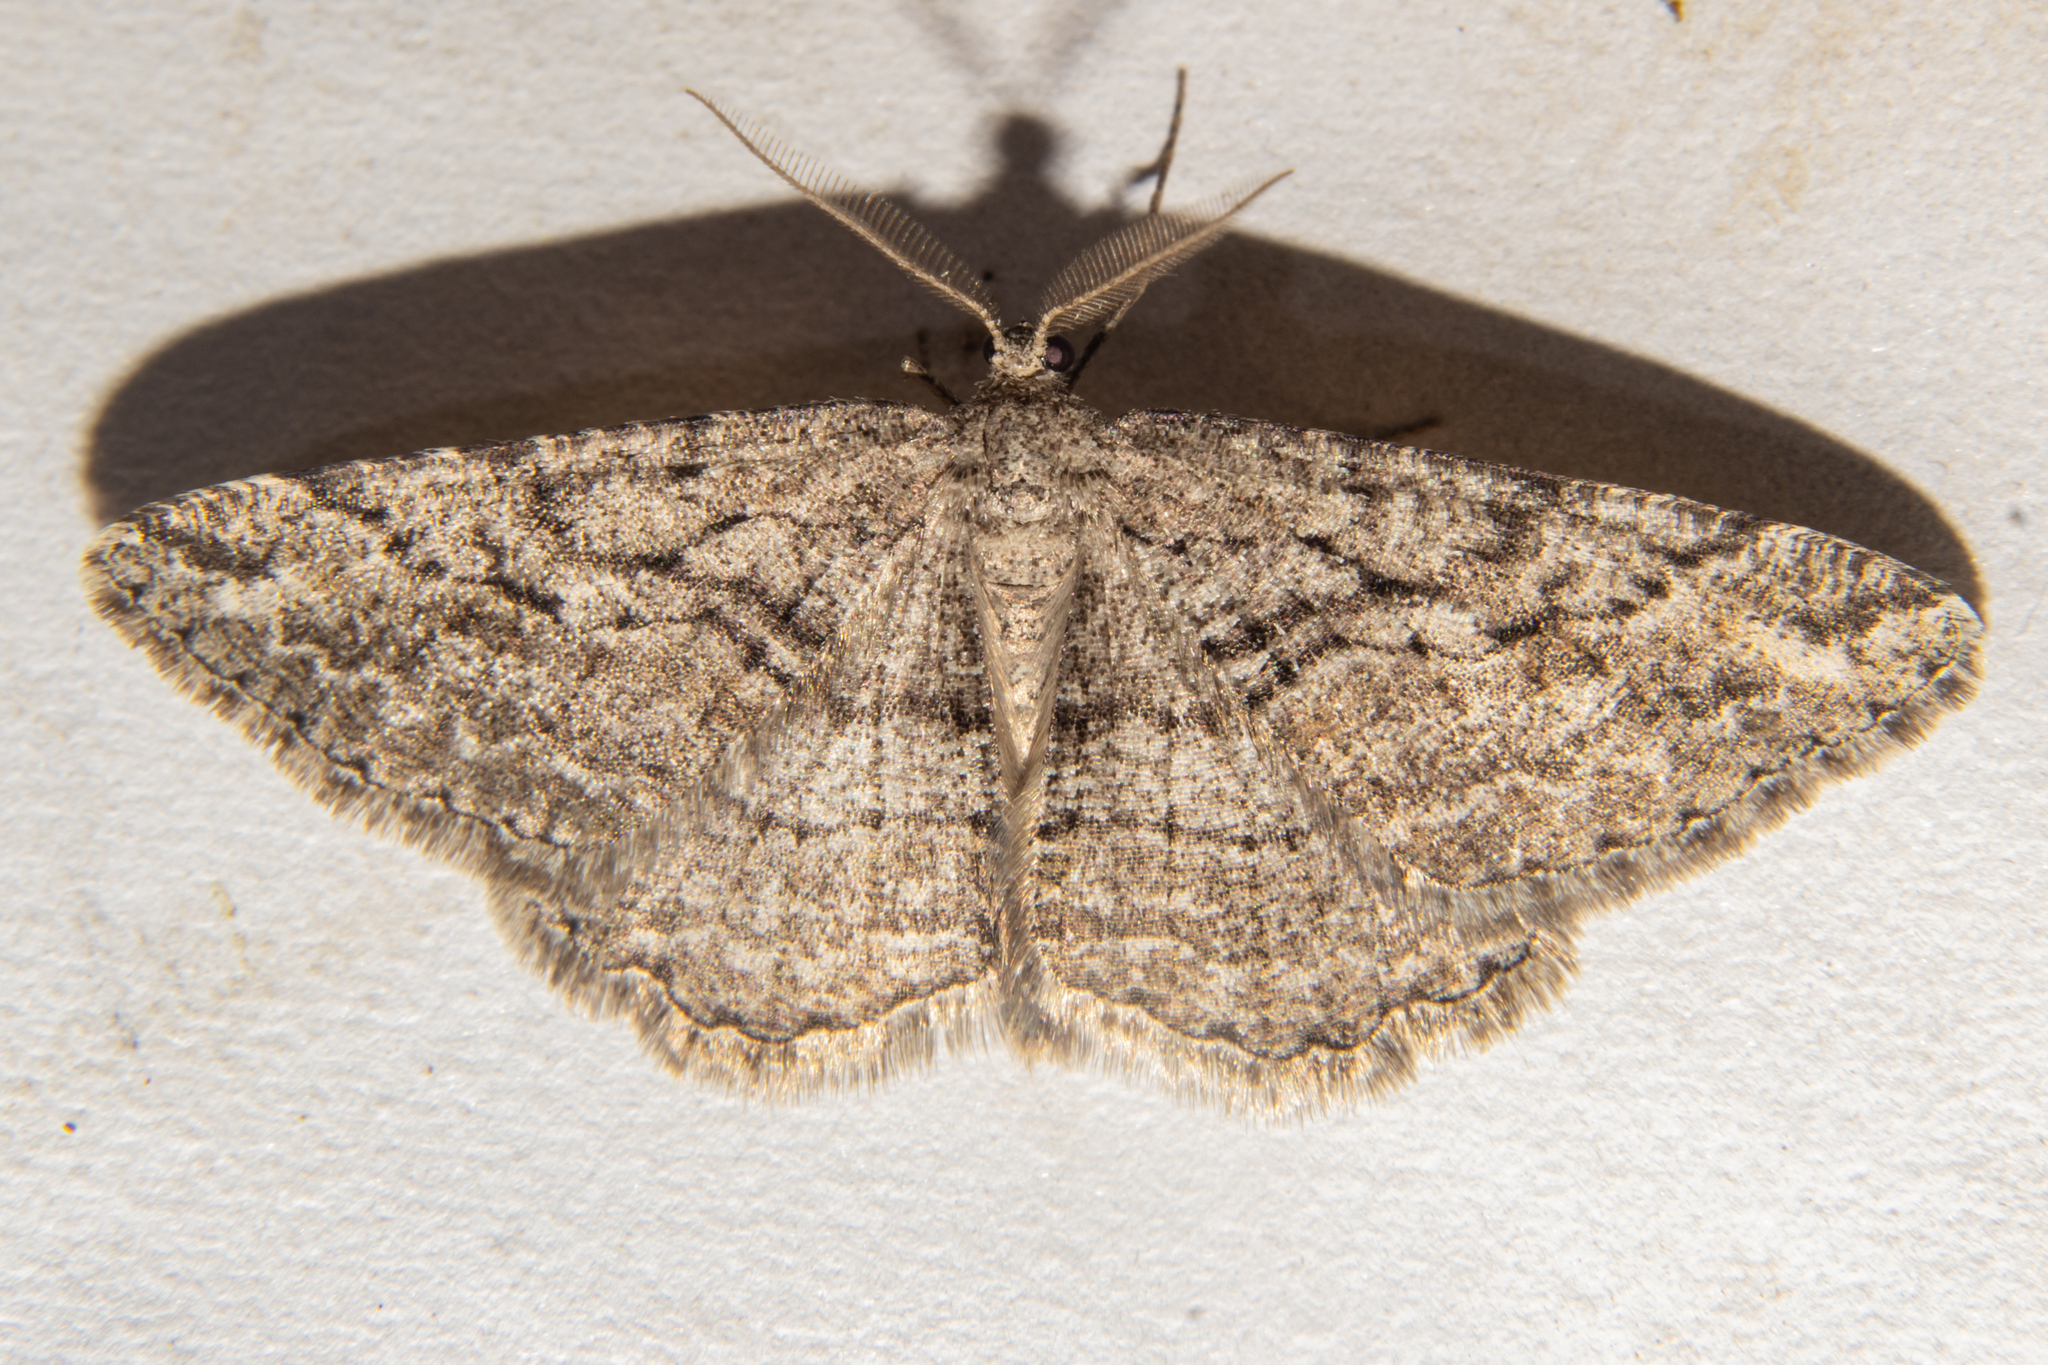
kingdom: Animalia
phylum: Arthropoda
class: Insecta
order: Lepidoptera
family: Geometridae
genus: Zermizinga
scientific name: Zermizinga indocilisaria
